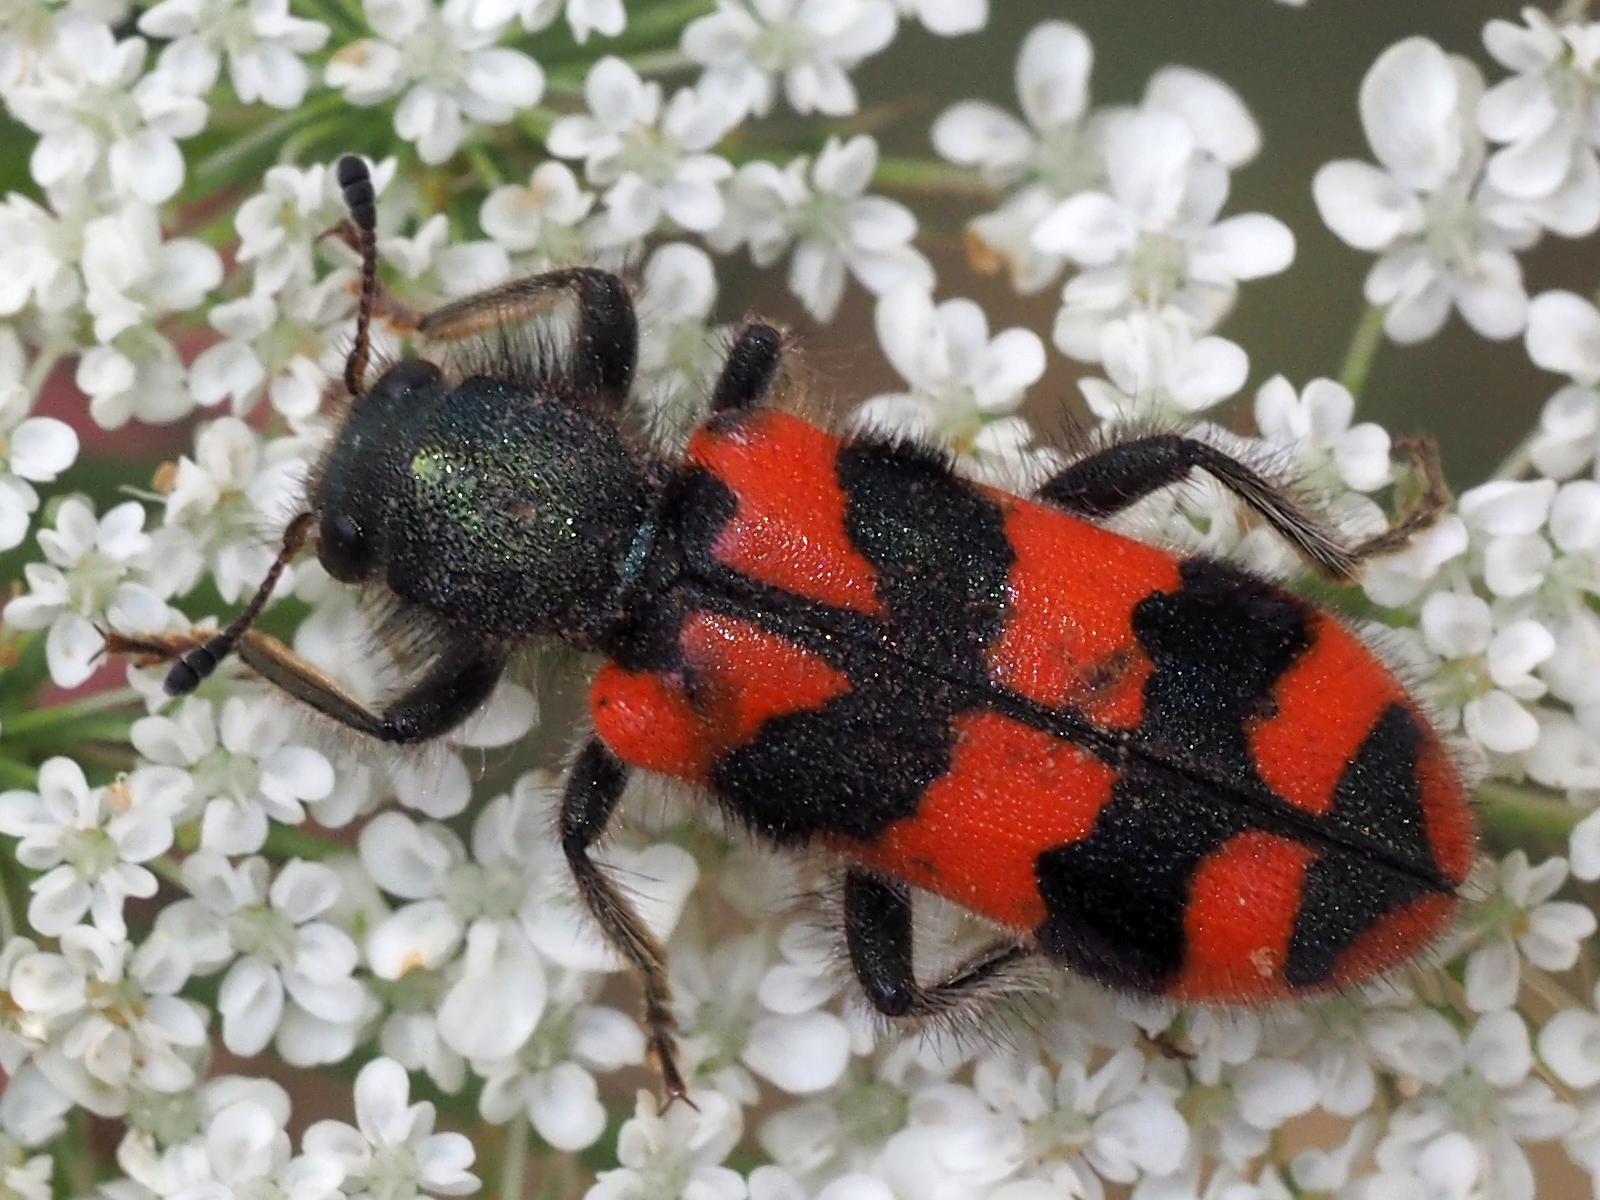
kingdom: Animalia
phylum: Arthropoda
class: Insecta
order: Coleoptera
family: Cleridae
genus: Trichodes
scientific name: Trichodes alvearius
